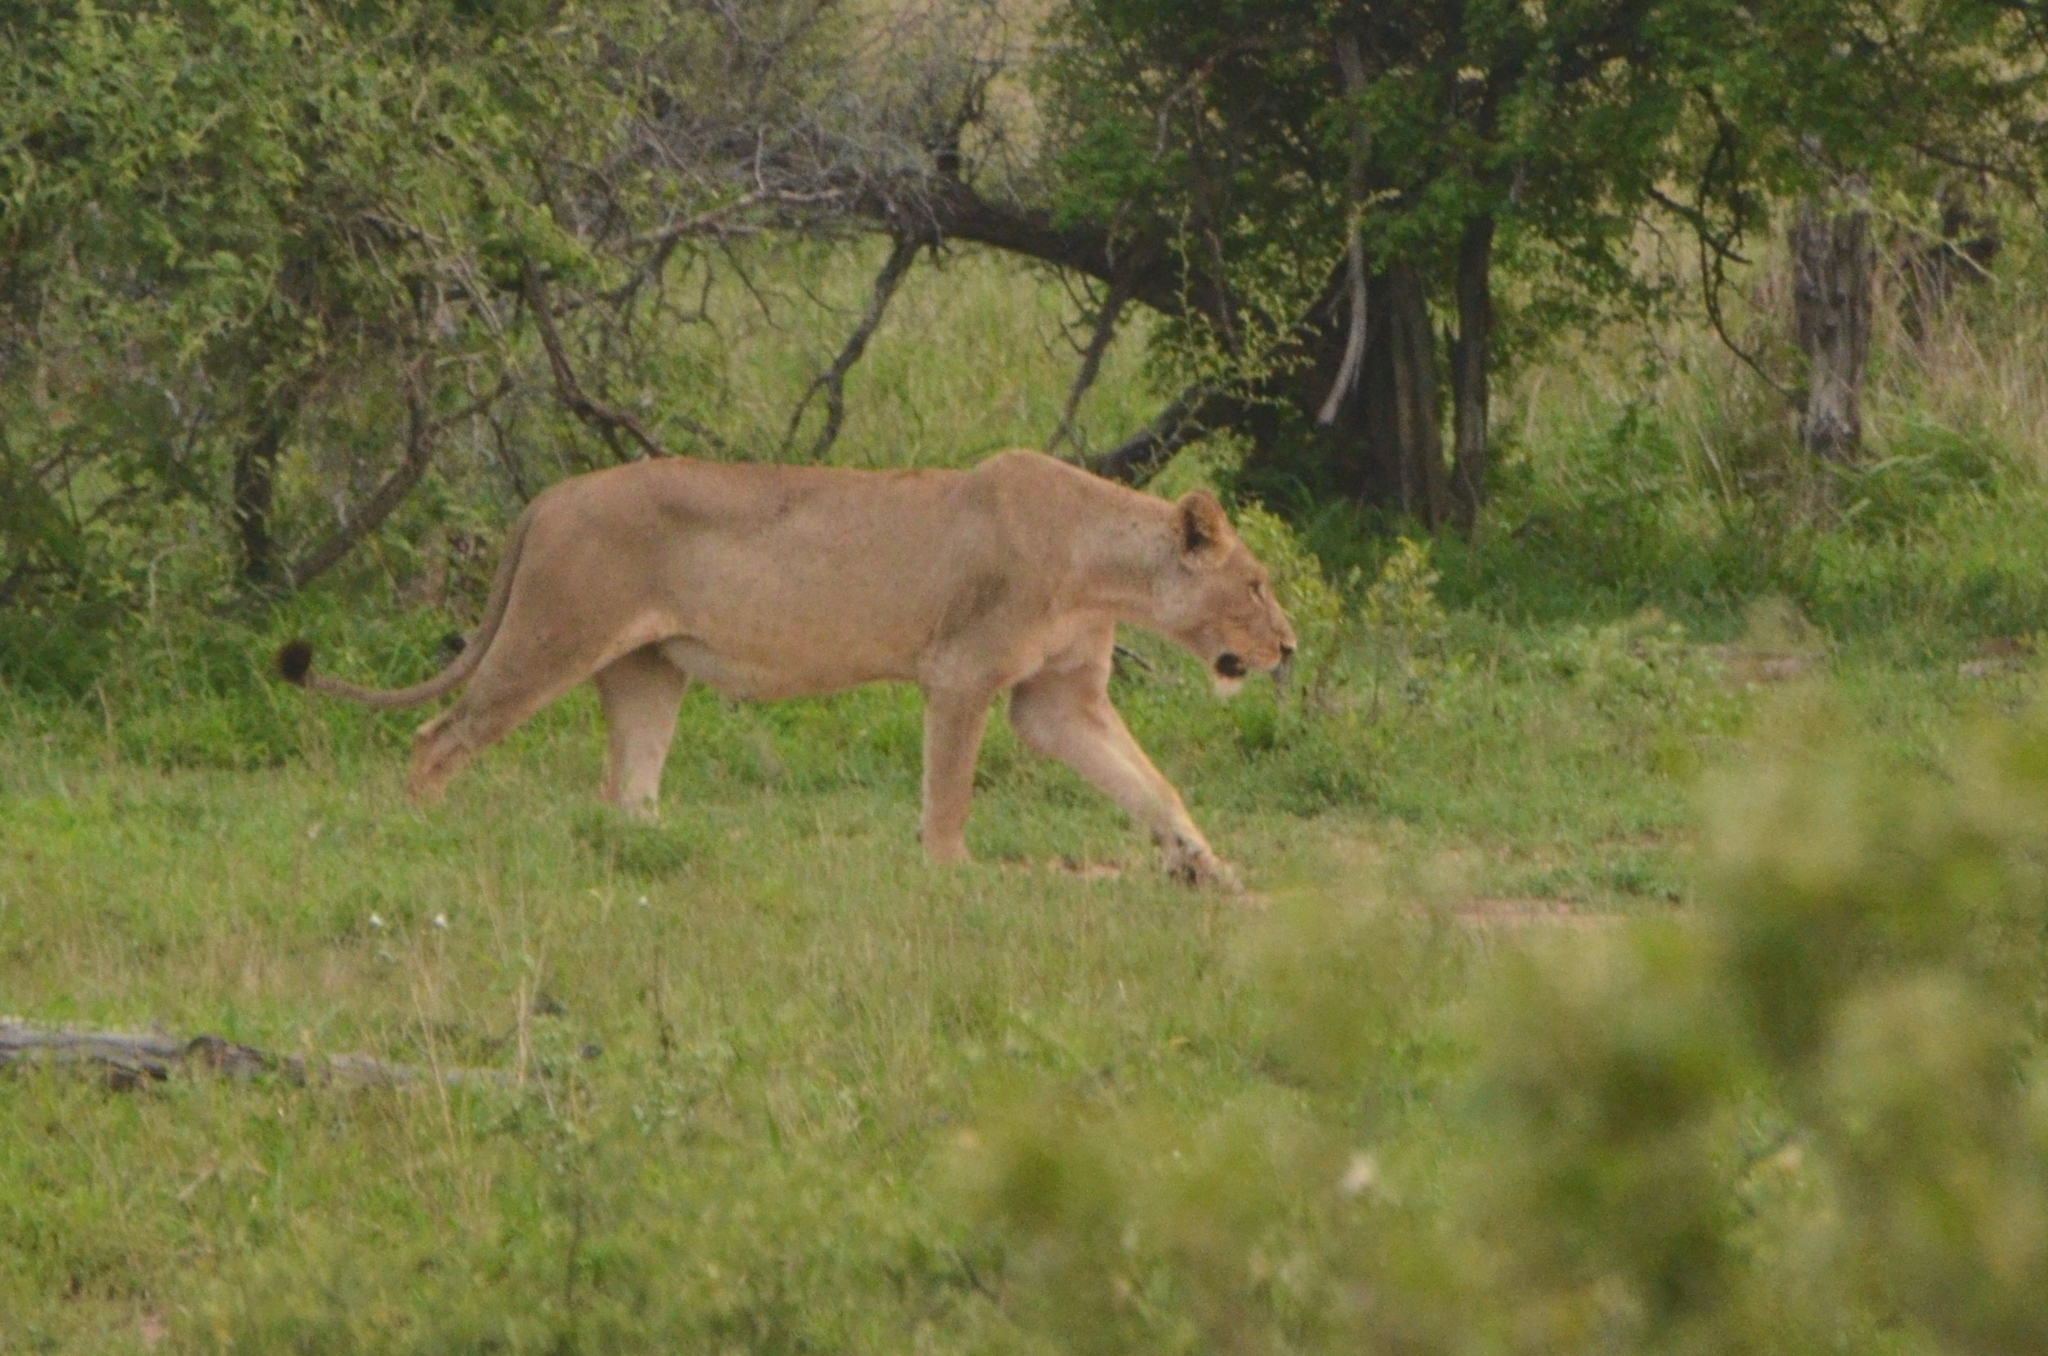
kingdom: Animalia
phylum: Chordata
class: Mammalia
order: Carnivora
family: Felidae
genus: Panthera
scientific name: Panthera leo
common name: Lion
